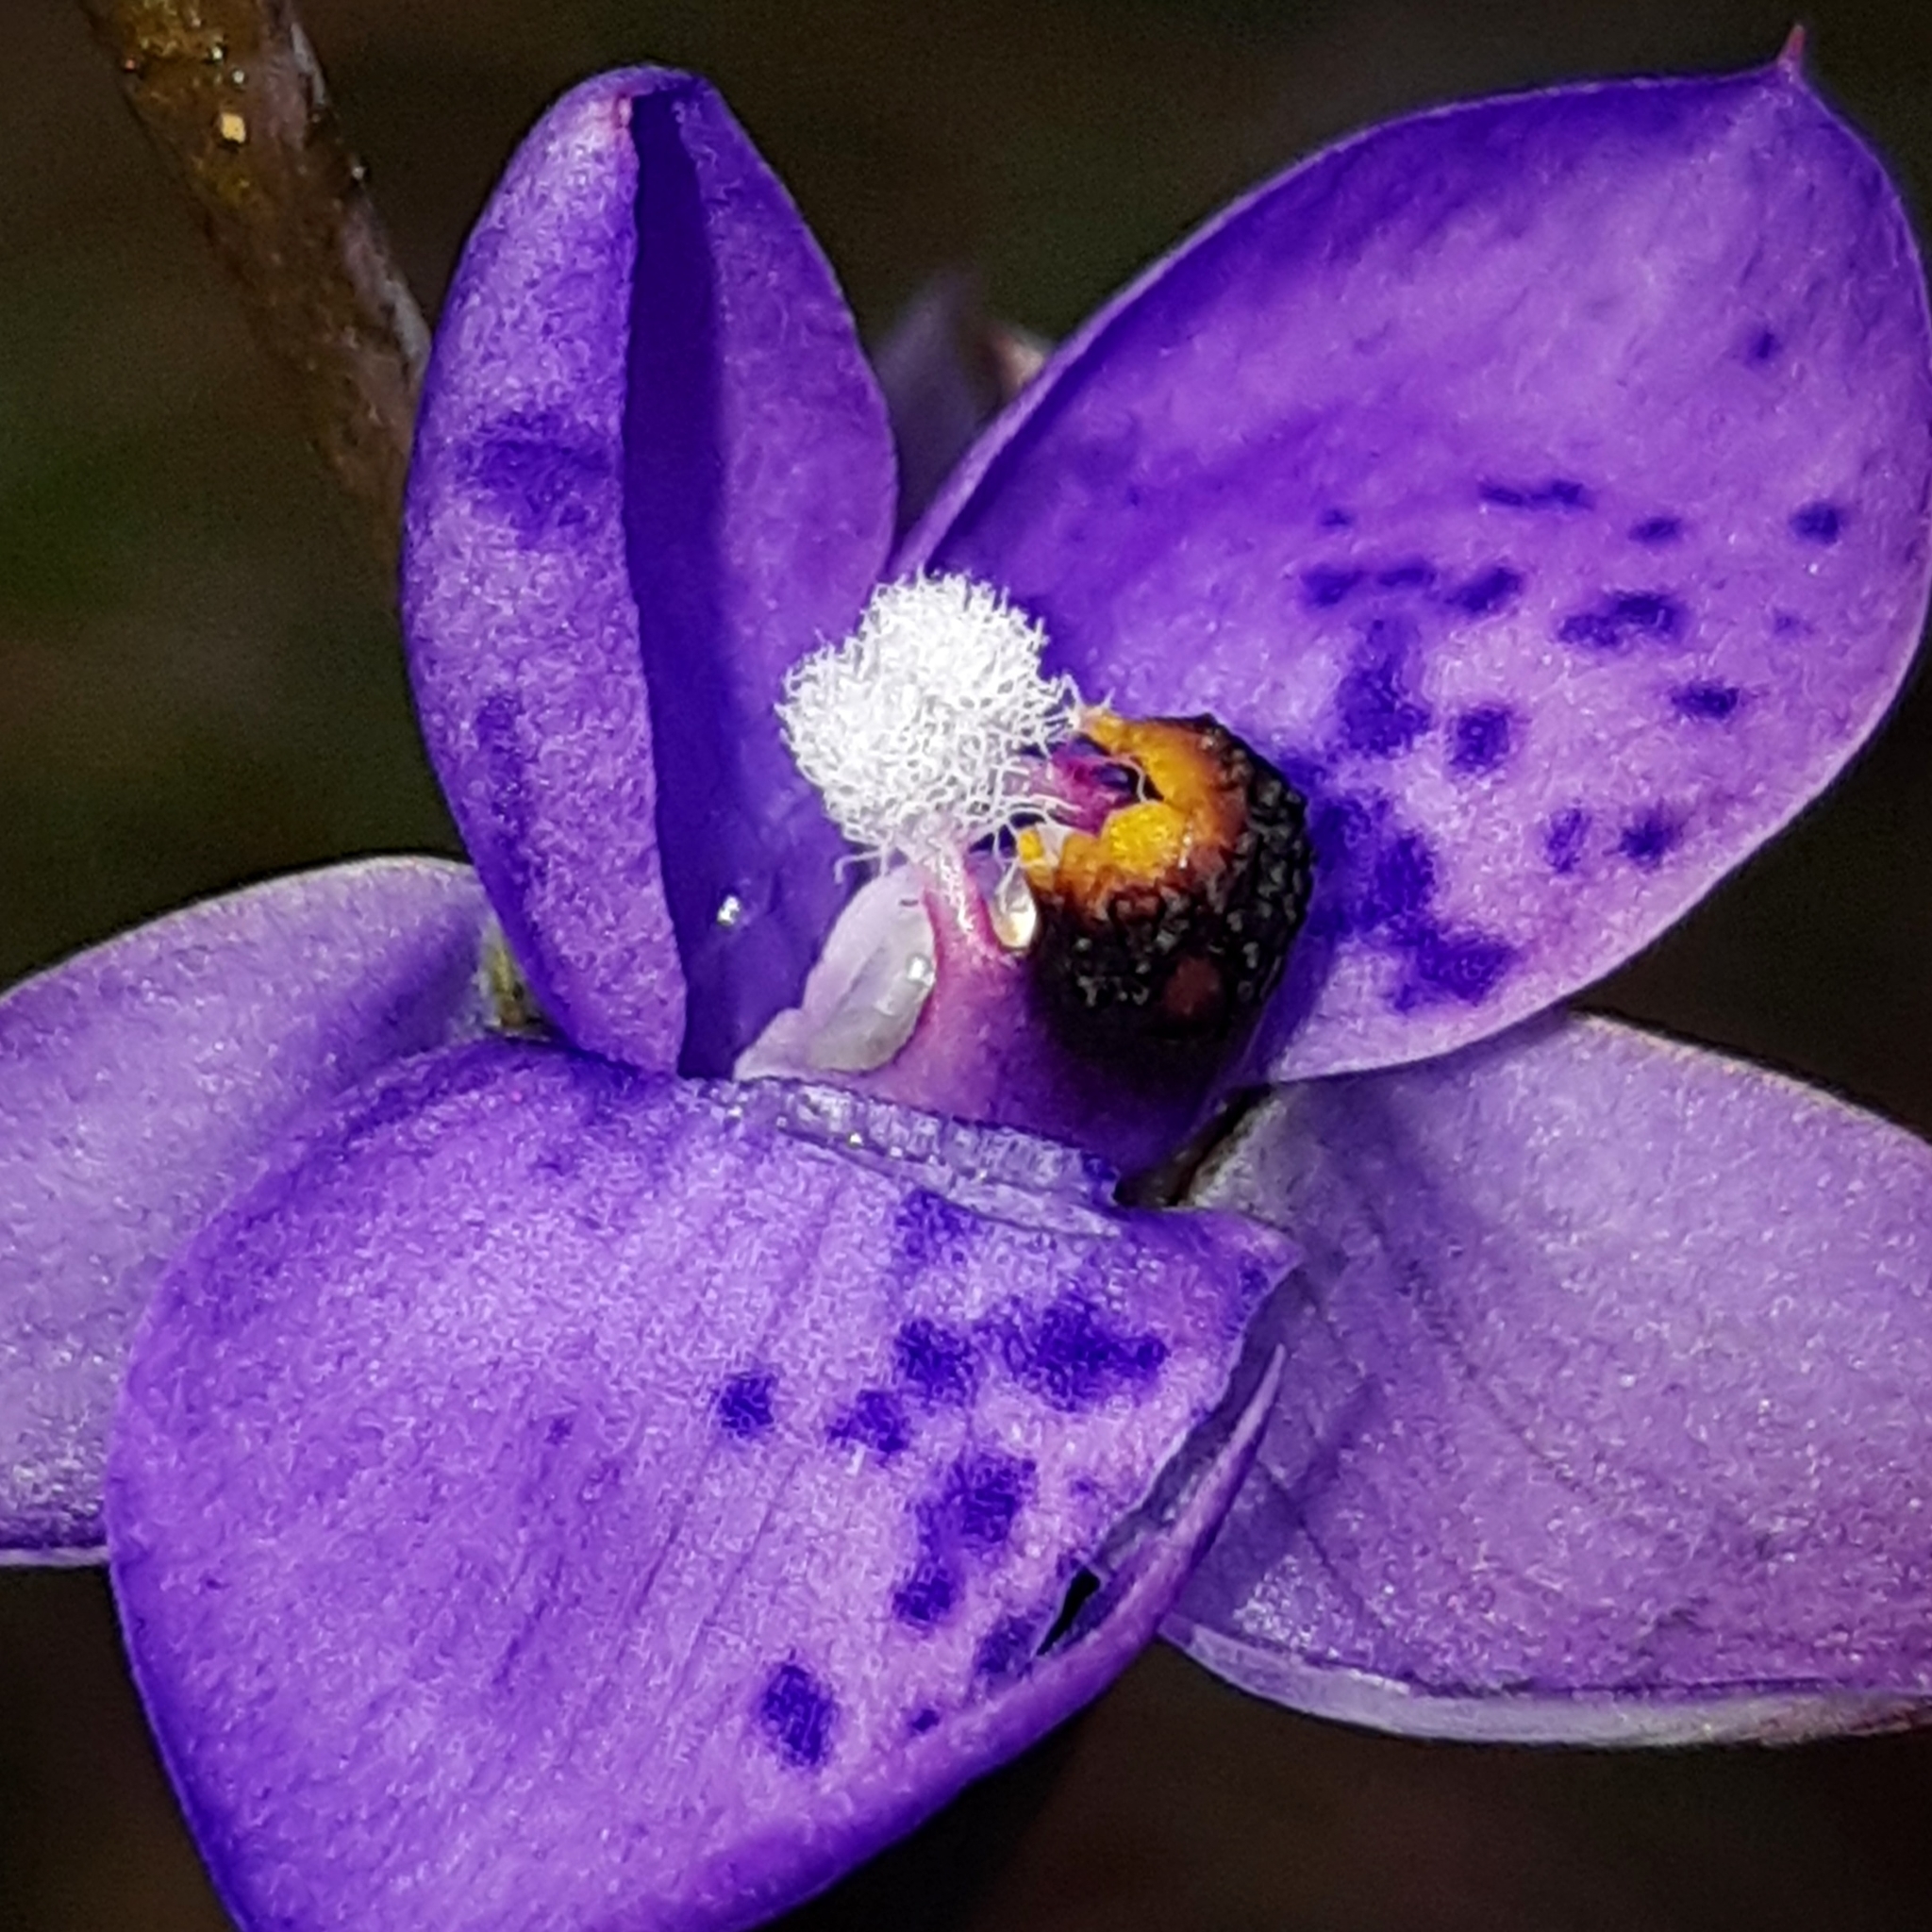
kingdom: Plantae
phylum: Tracheophyta
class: Liliopsida
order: Asparagales
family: Orchidaceae
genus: Thelymitra
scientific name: Thelymitra nervosa
